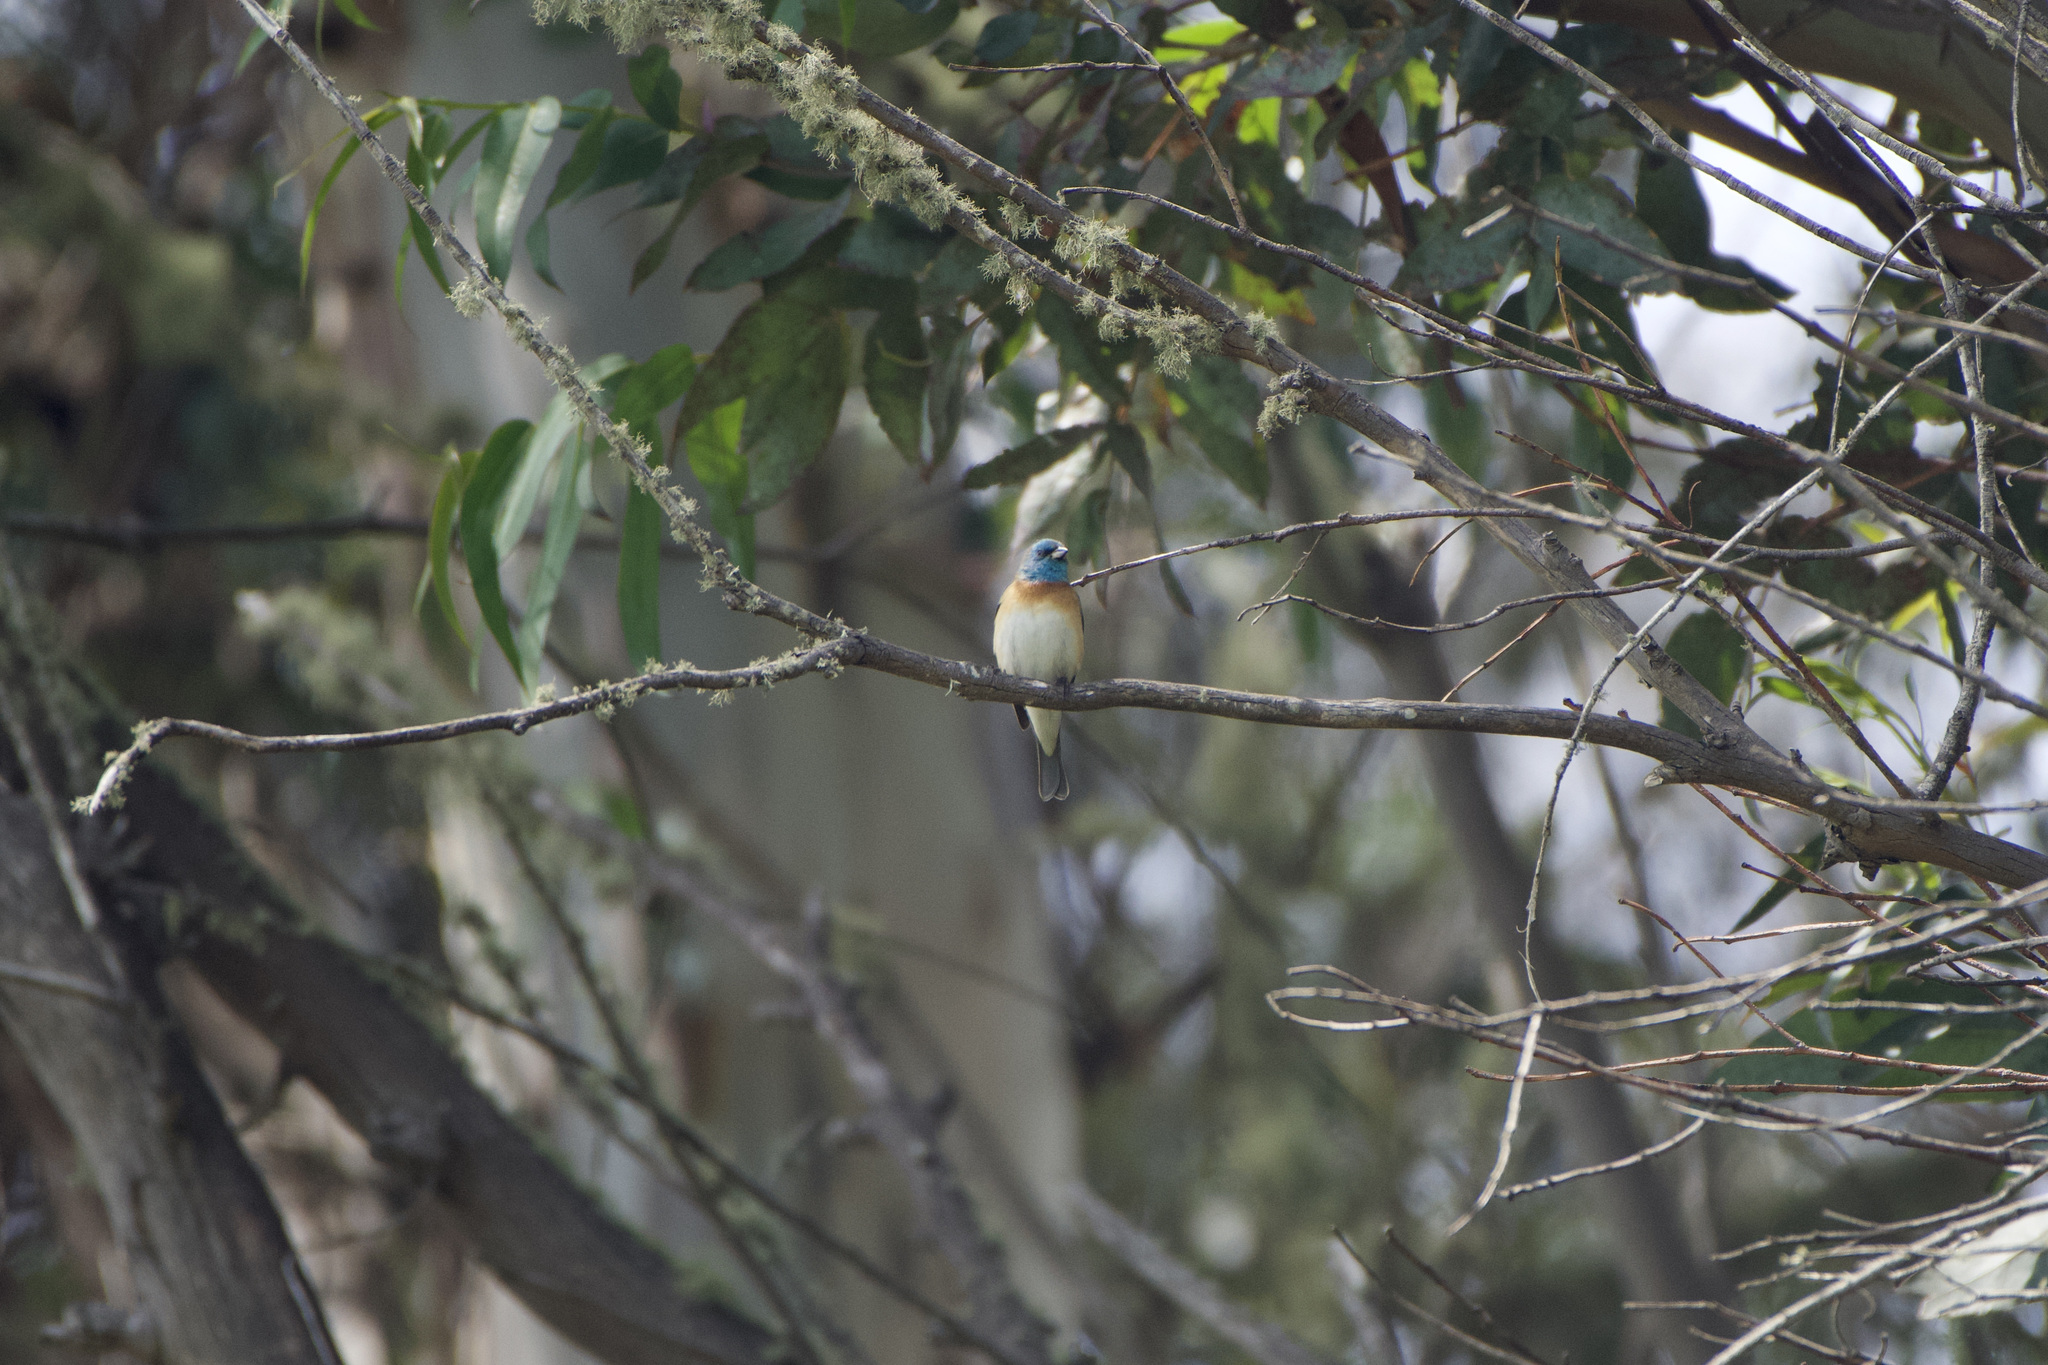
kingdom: Animalia
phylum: Chordata
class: Aves
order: Passeriformes
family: Cardinalidae
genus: Passerina
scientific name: Passerina amoena
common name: Lazuli bunting
